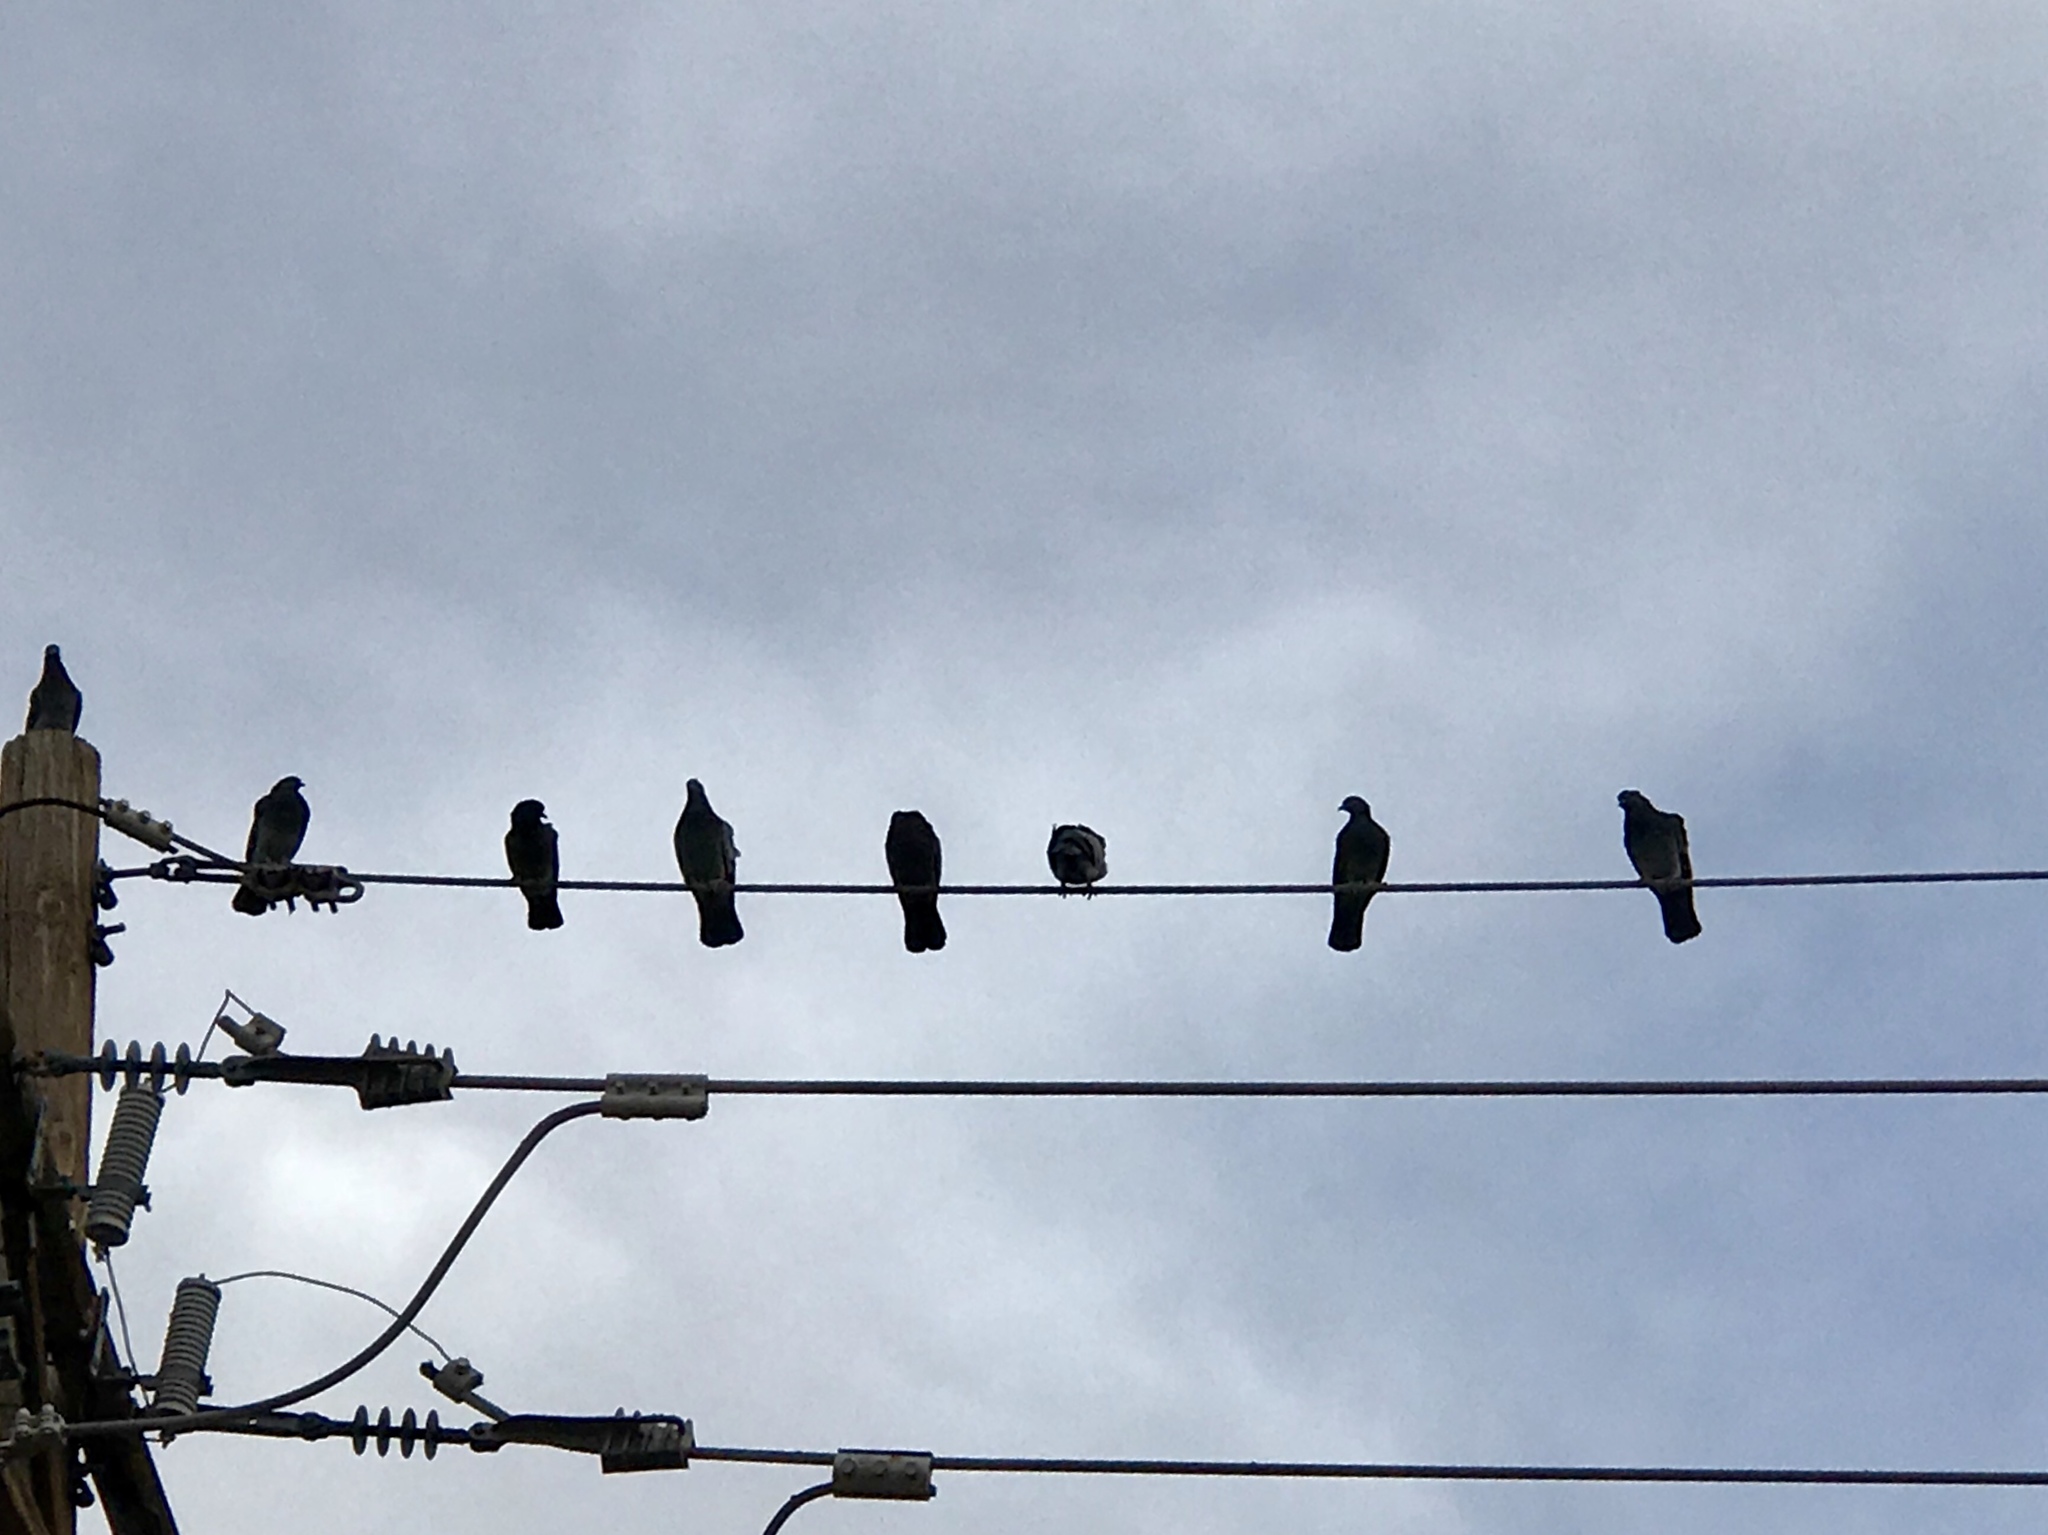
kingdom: Animalia
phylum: Chordata
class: Aves
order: Columbiformes
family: Columbidae
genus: Columba
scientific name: Columba livia
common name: Rock pigeon
